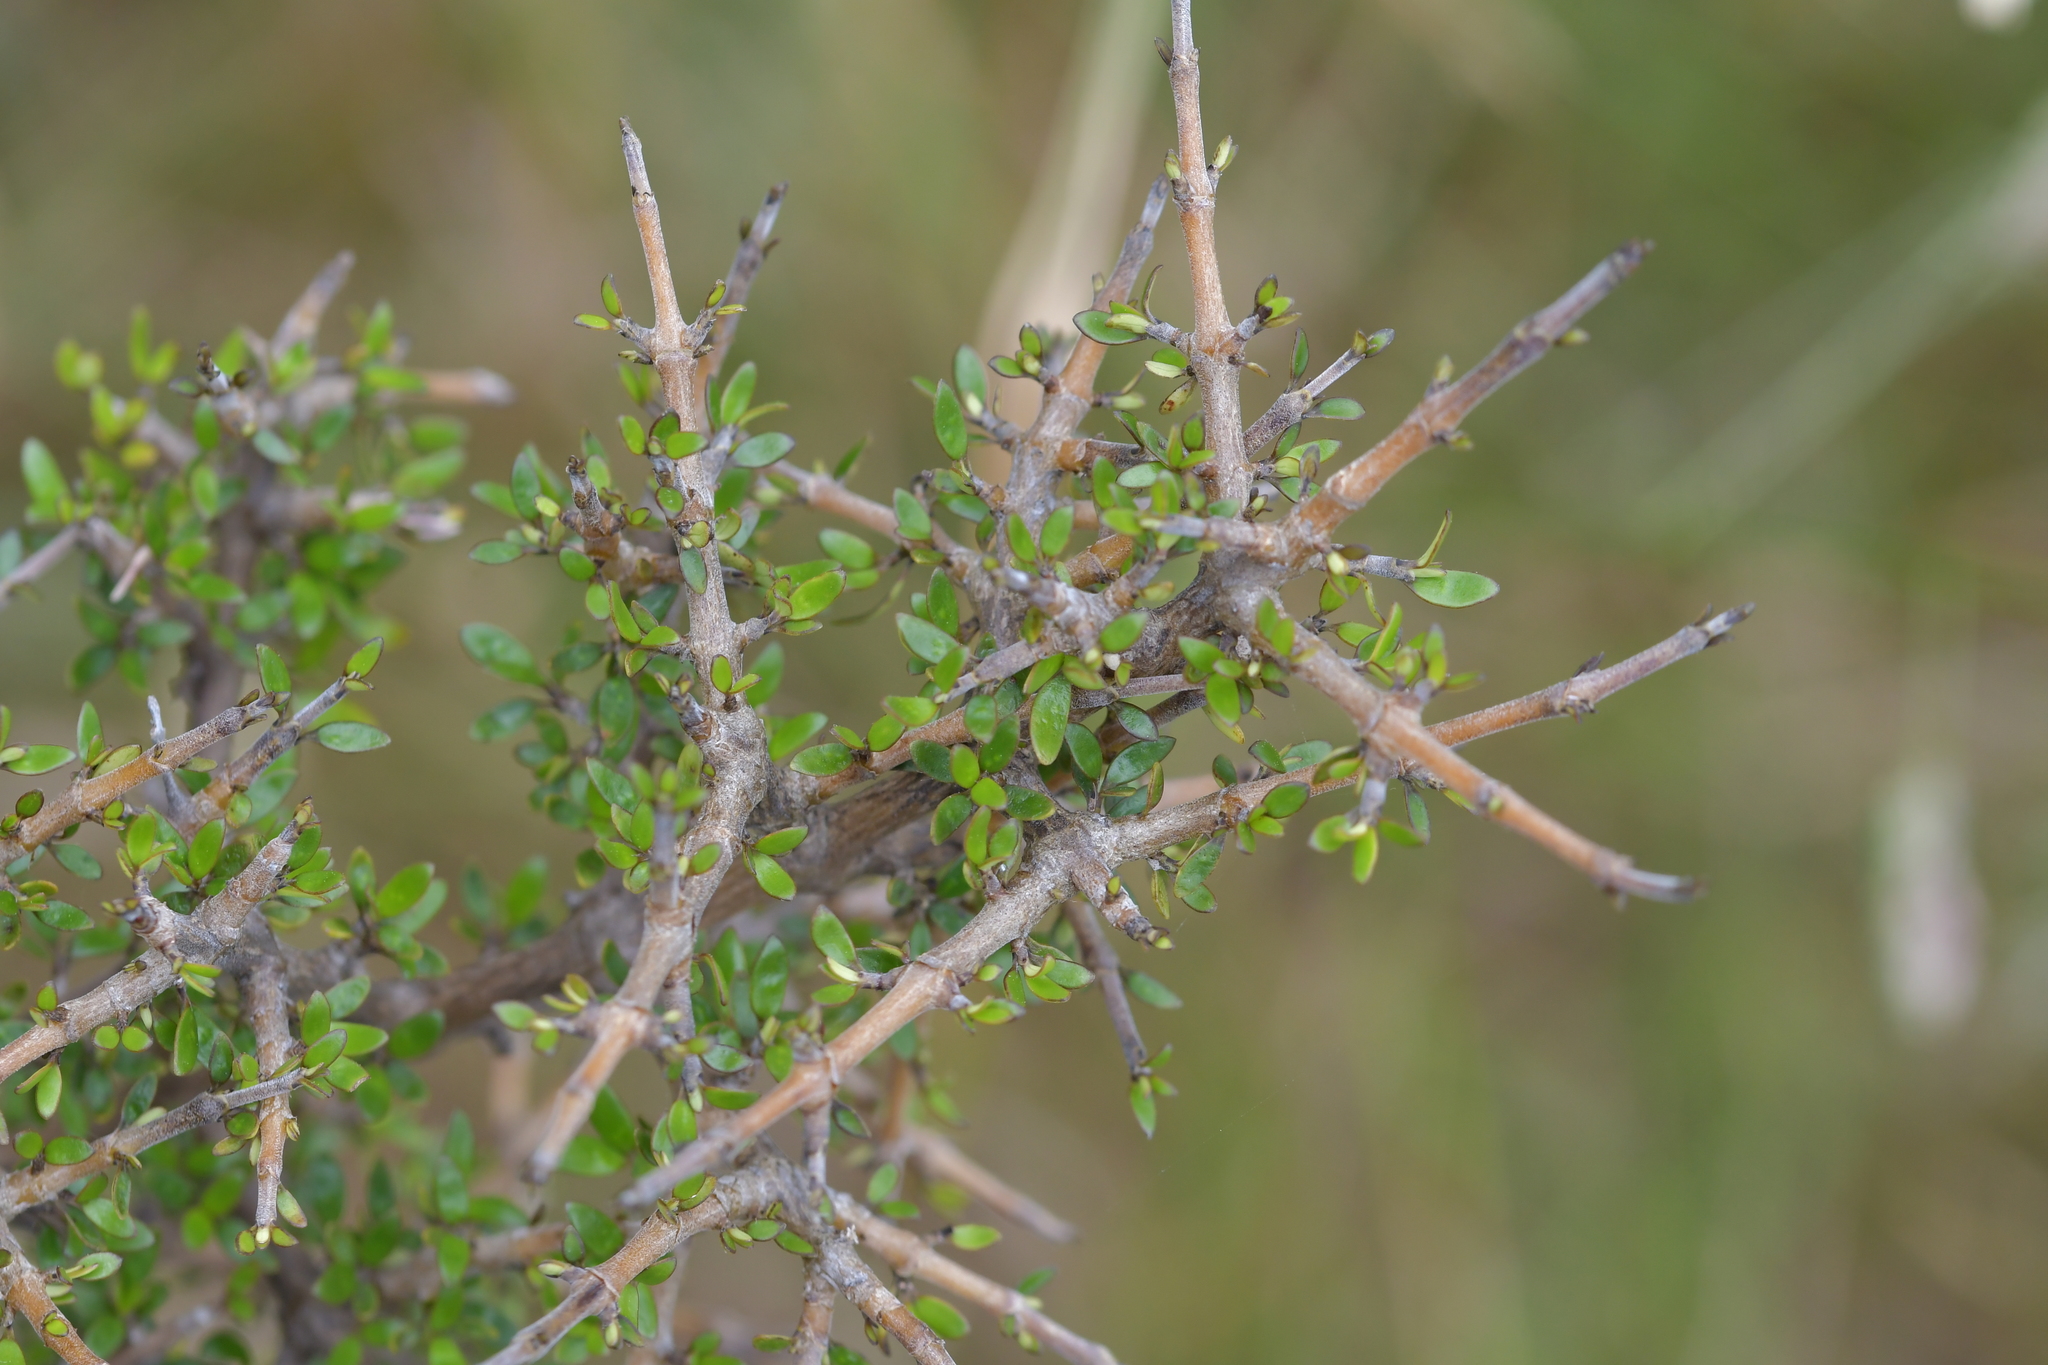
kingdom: Plantae
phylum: Tracheophyta
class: Magnoliopsida
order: Gentianales
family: Rubiaceae
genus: Coprosma
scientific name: Coprosma propinqua
